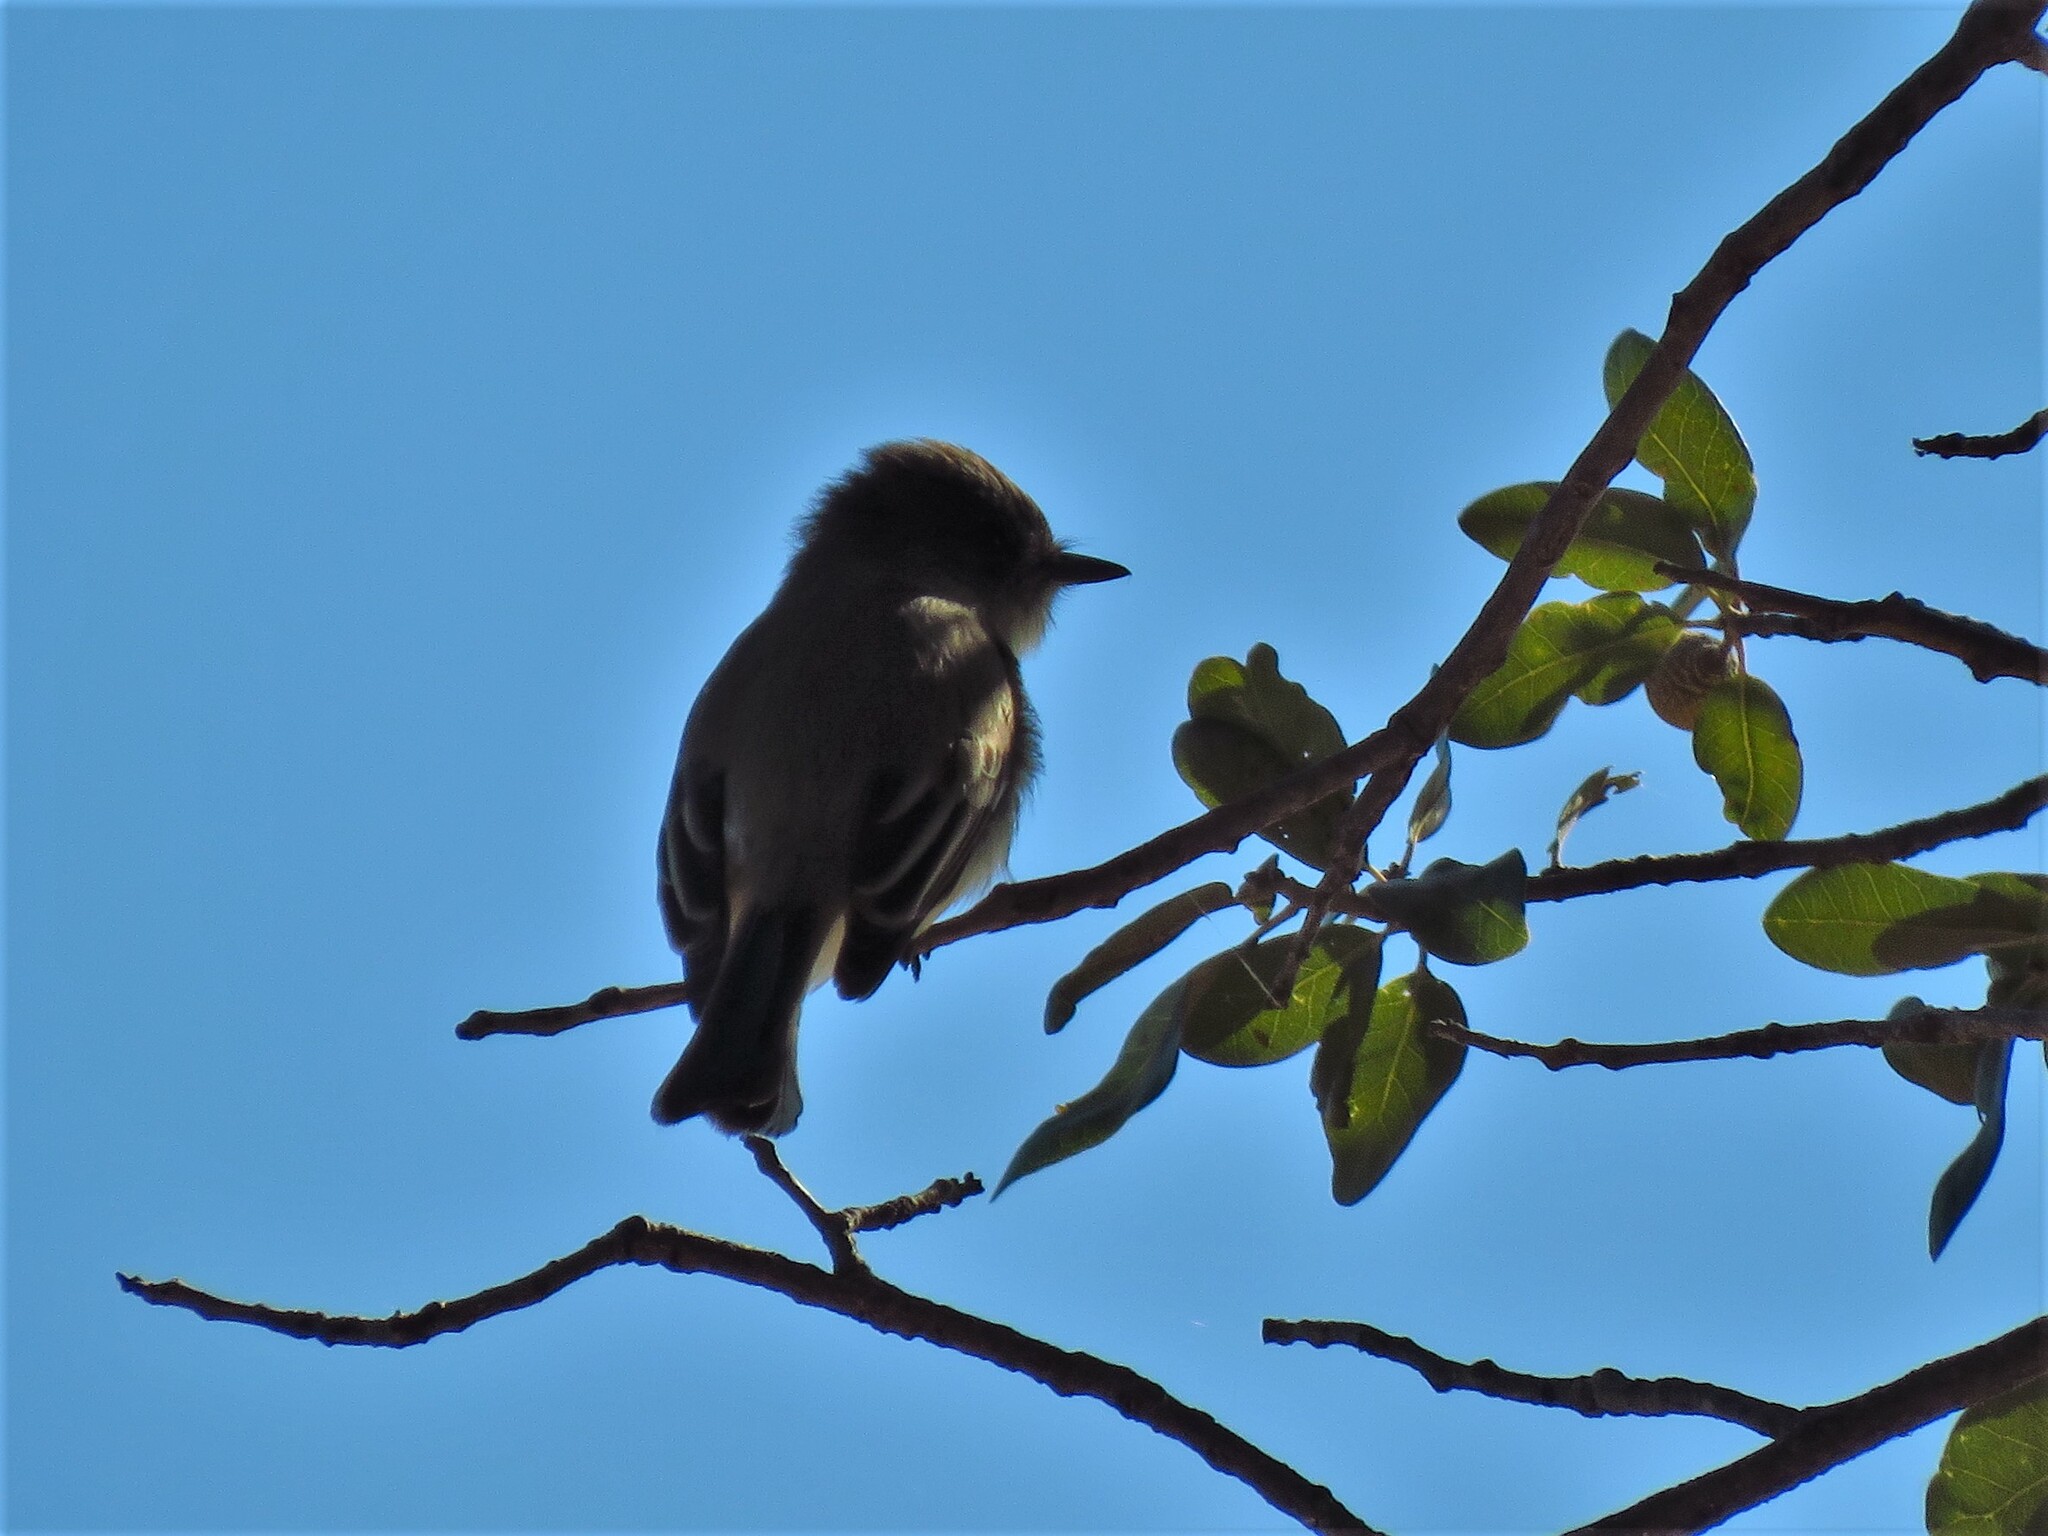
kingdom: Animalia
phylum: Chordata
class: Aves
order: Passeriformes
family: Tyrannidae
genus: Sayornis
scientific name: Sayornis phoebe
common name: Eastern phoebe
